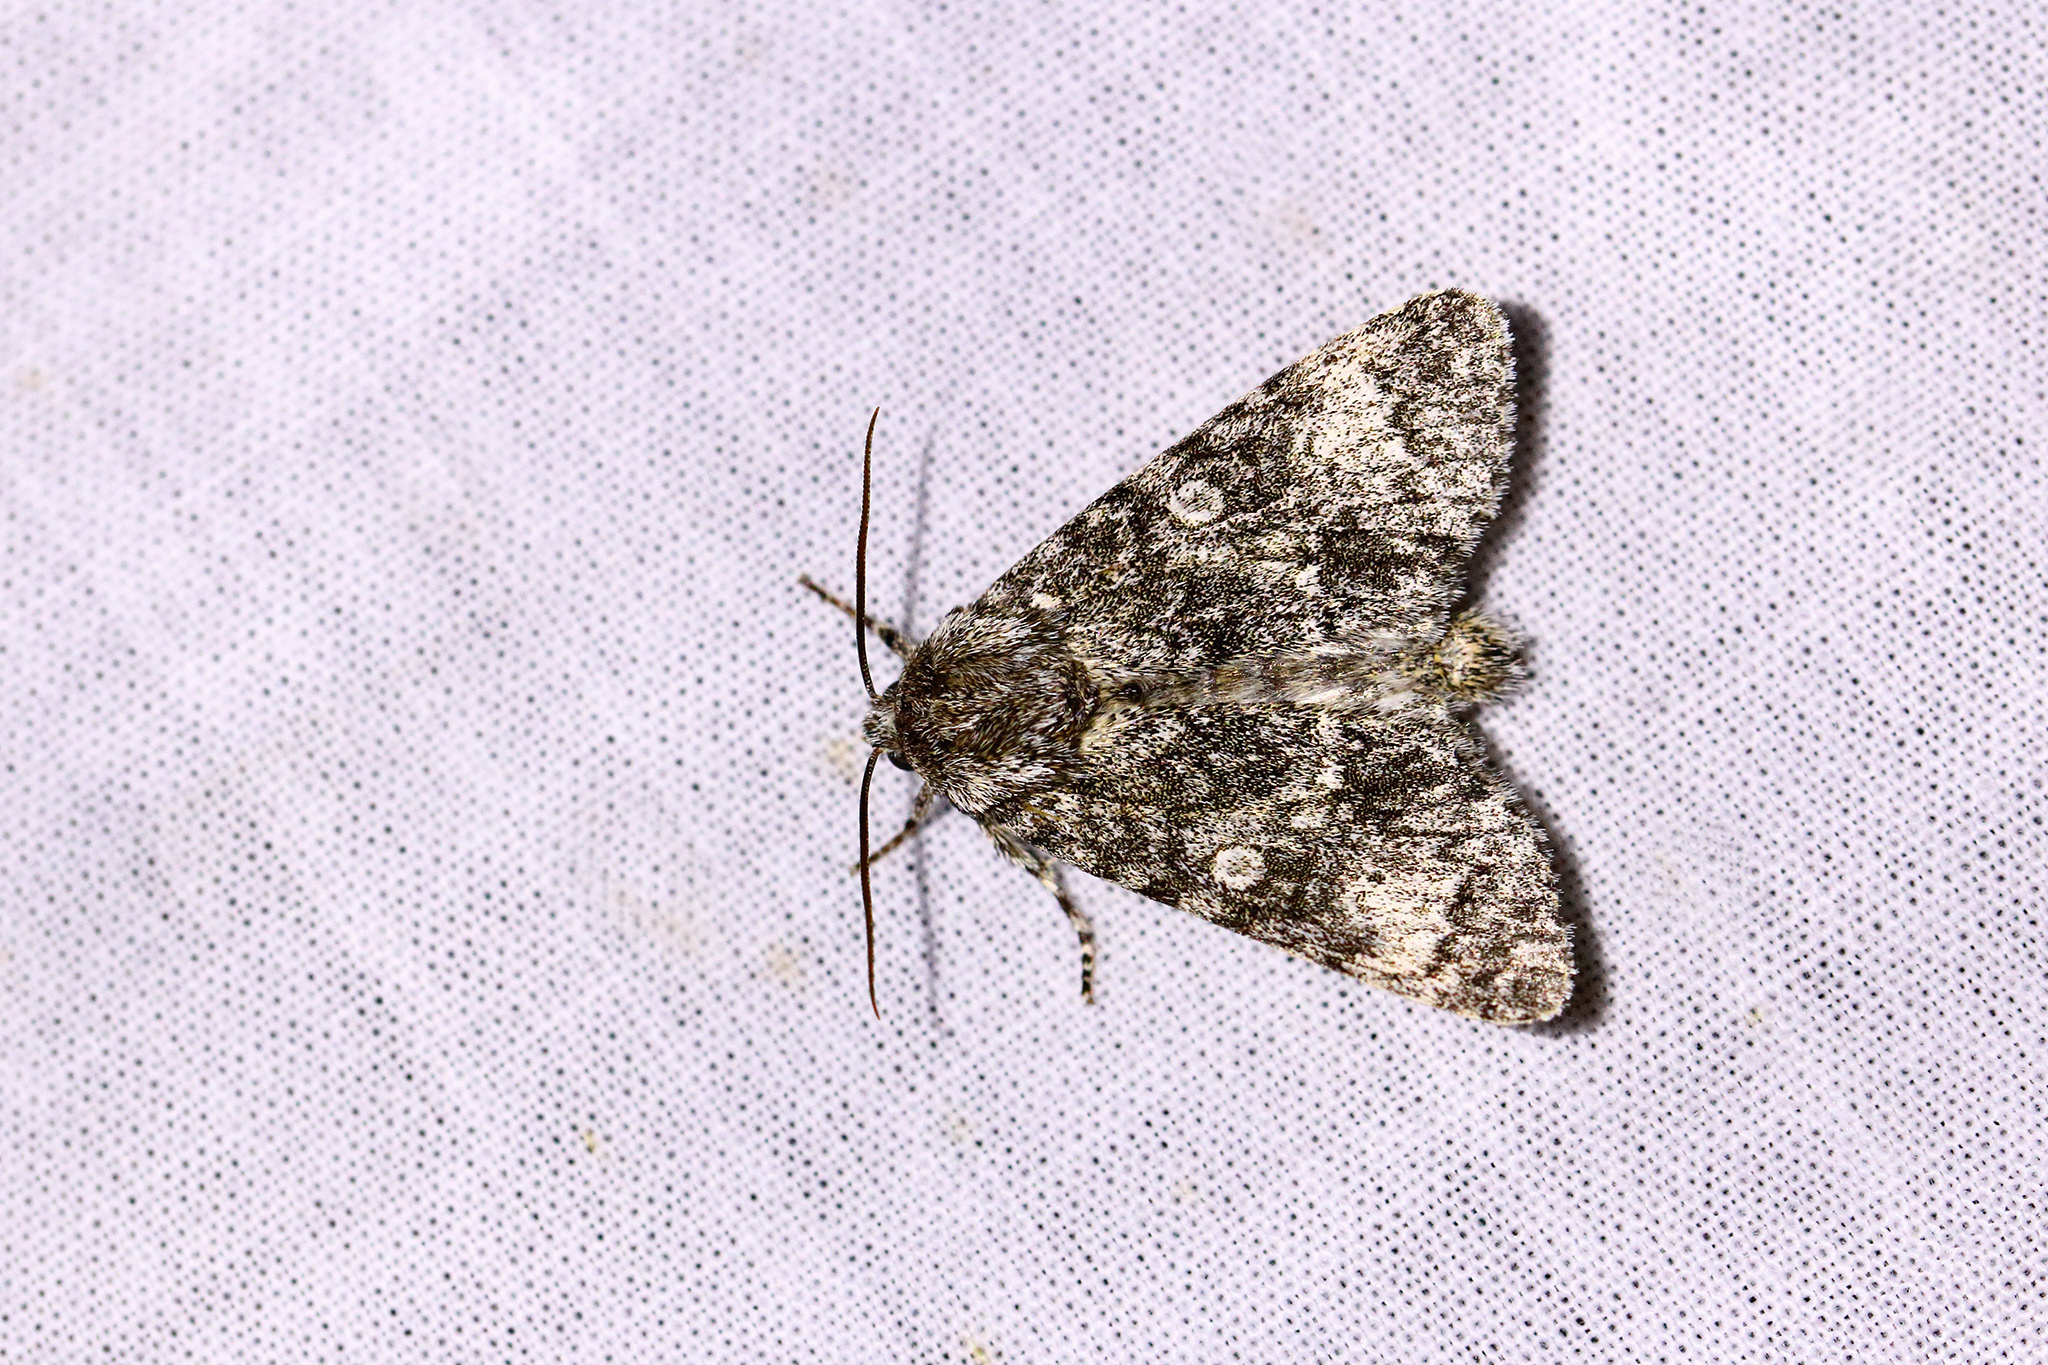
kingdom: Animalia
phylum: Arthropoda
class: Insecta
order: Lepidoptera
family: Noctuidae
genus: Acronicta
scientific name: Acronicta megacephala
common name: Poplar grey
